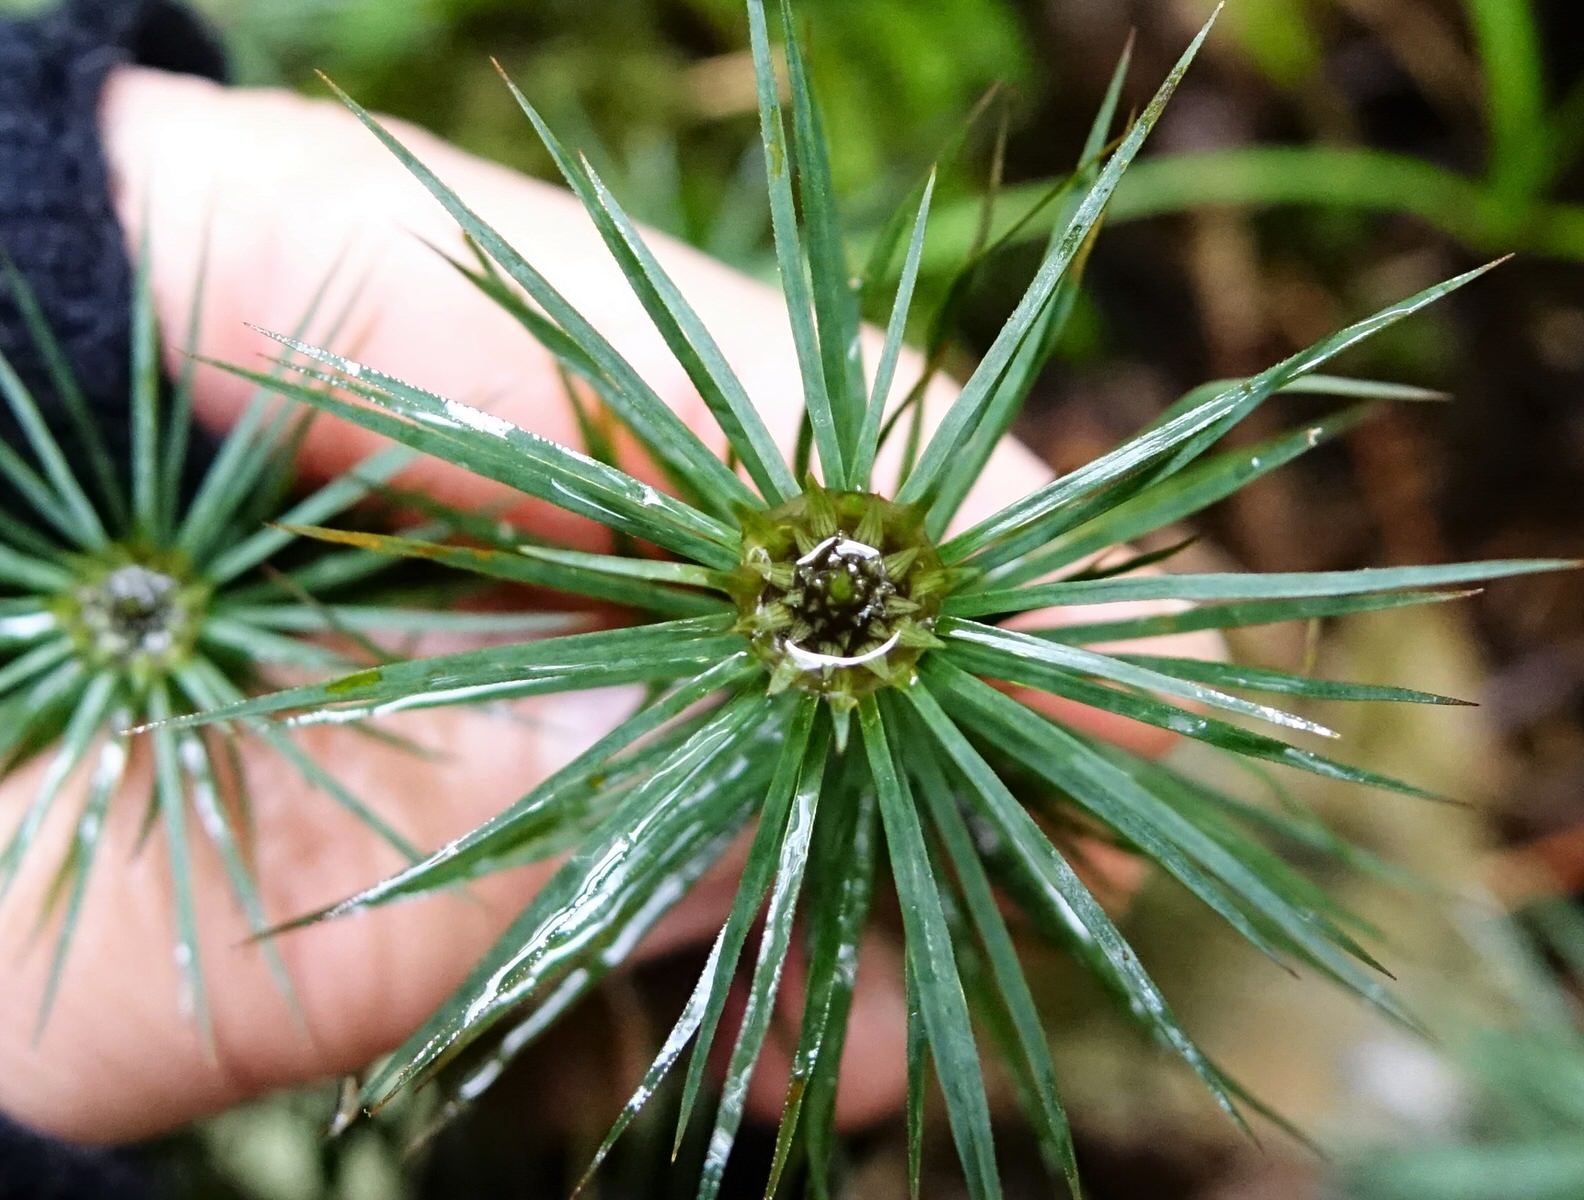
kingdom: Plantae
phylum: Bryophyta
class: Polytrichopsida
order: Polytrichales
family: Polytrichaceae
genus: Dawsonia
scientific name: Dawsonia superba
